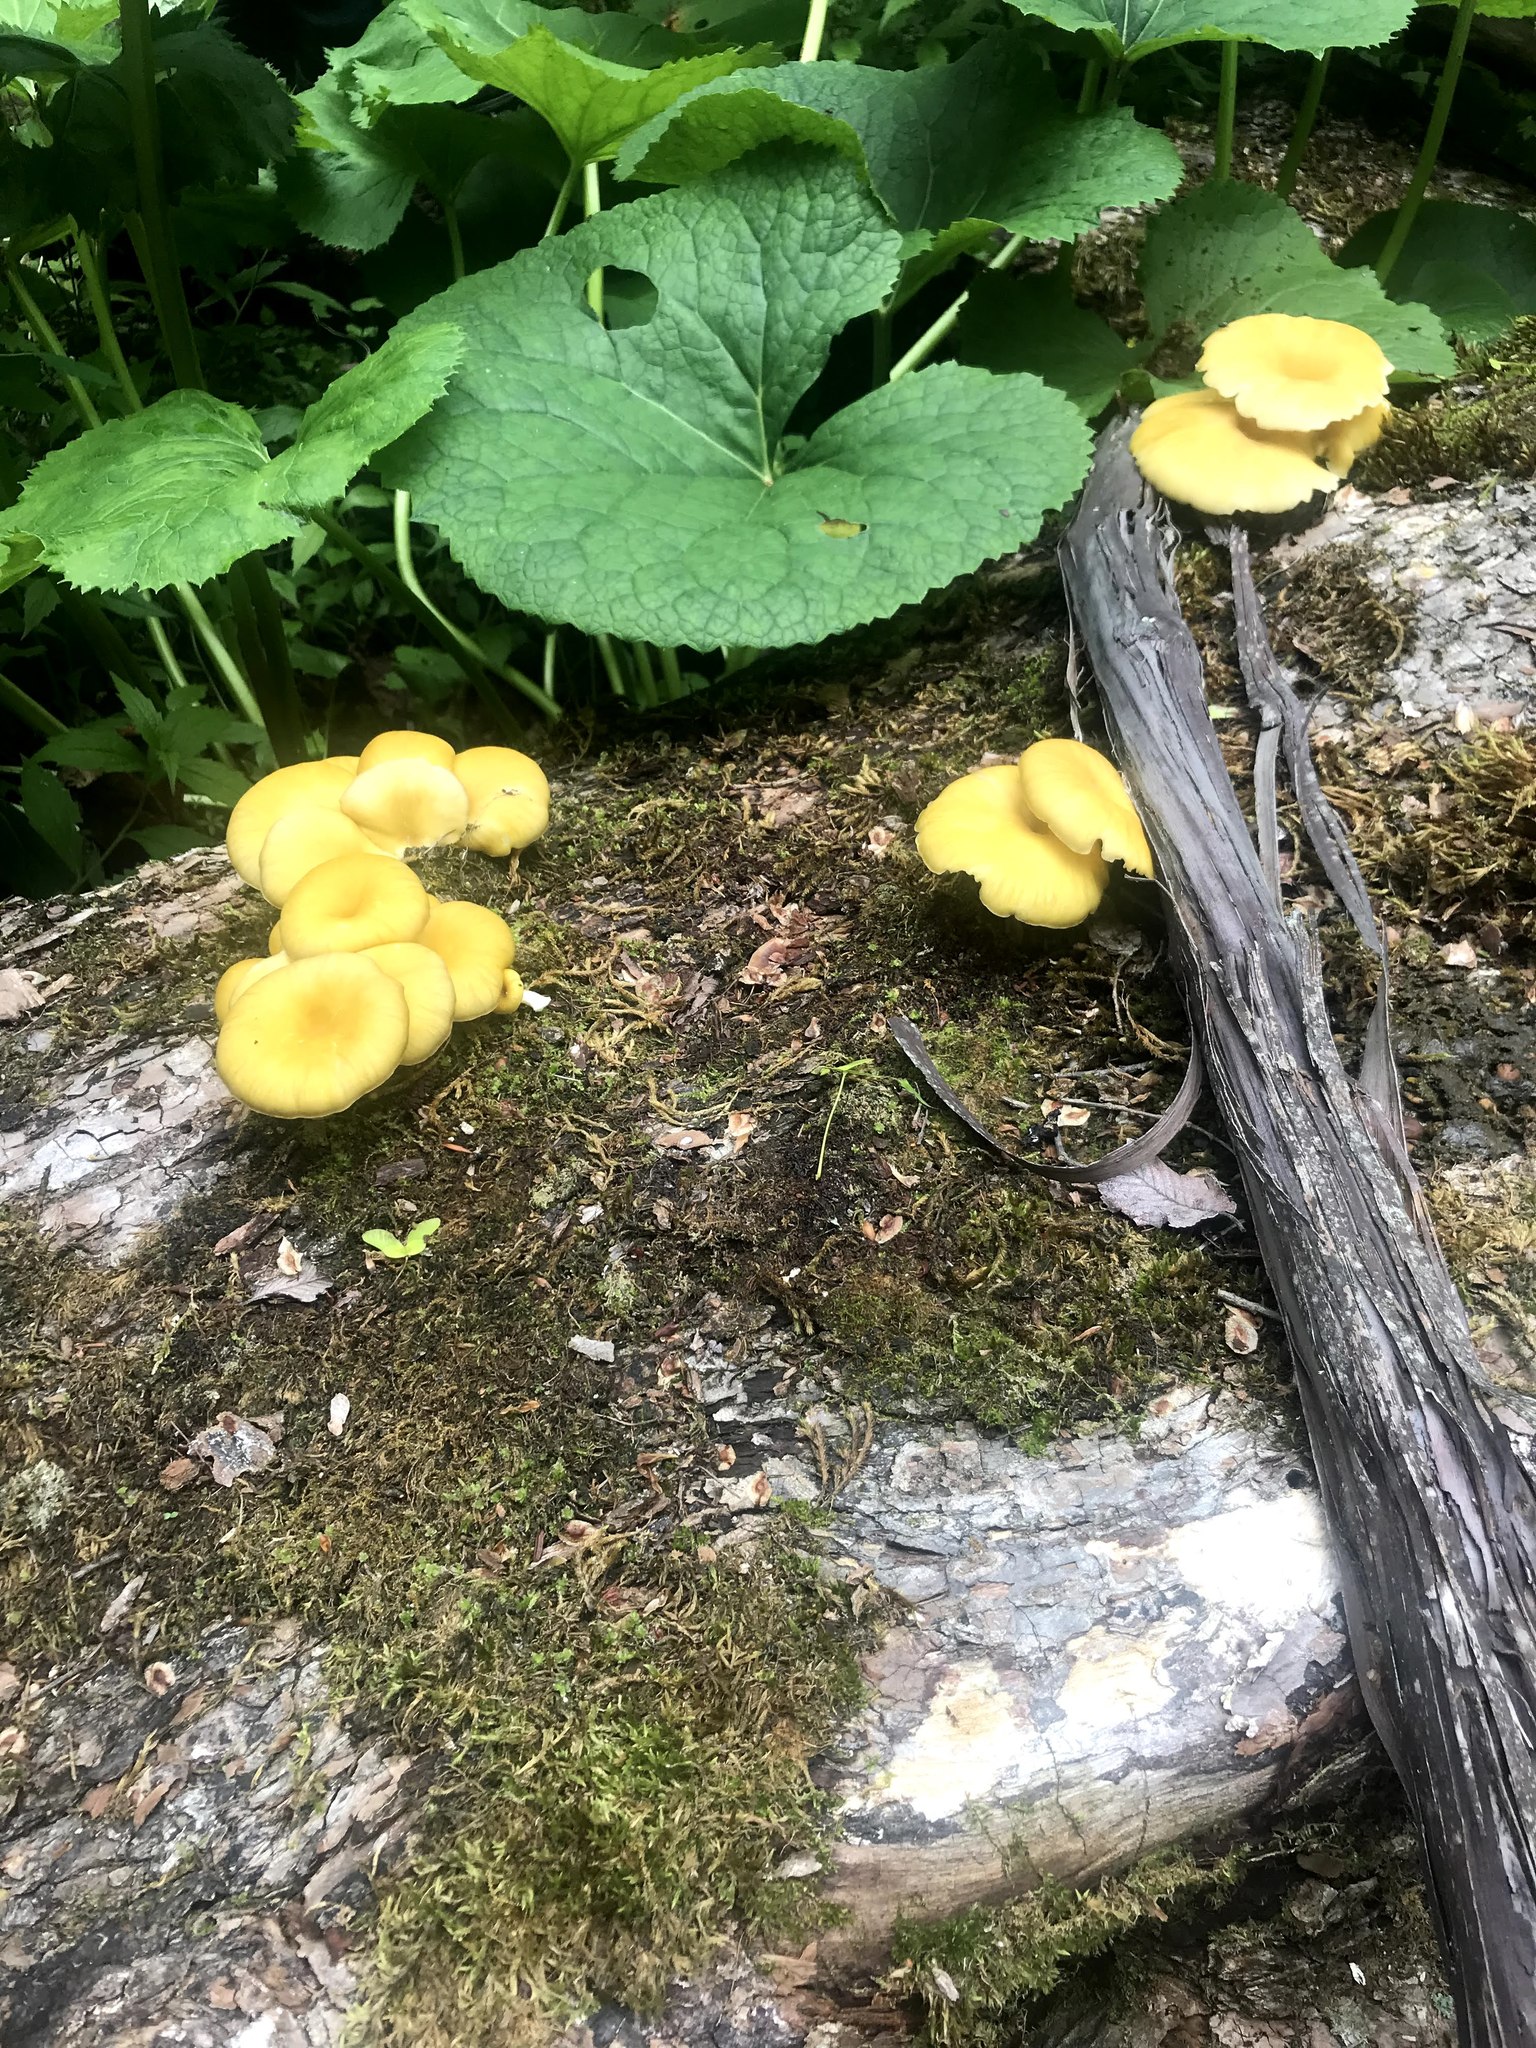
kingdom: Fungi
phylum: Basidiomycota
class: Agaricomycetes
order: Agaricales
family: Pleurotaceae
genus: Pleurotus
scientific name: Pleurotus citrinopileatus
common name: Golden oyster mushroom
